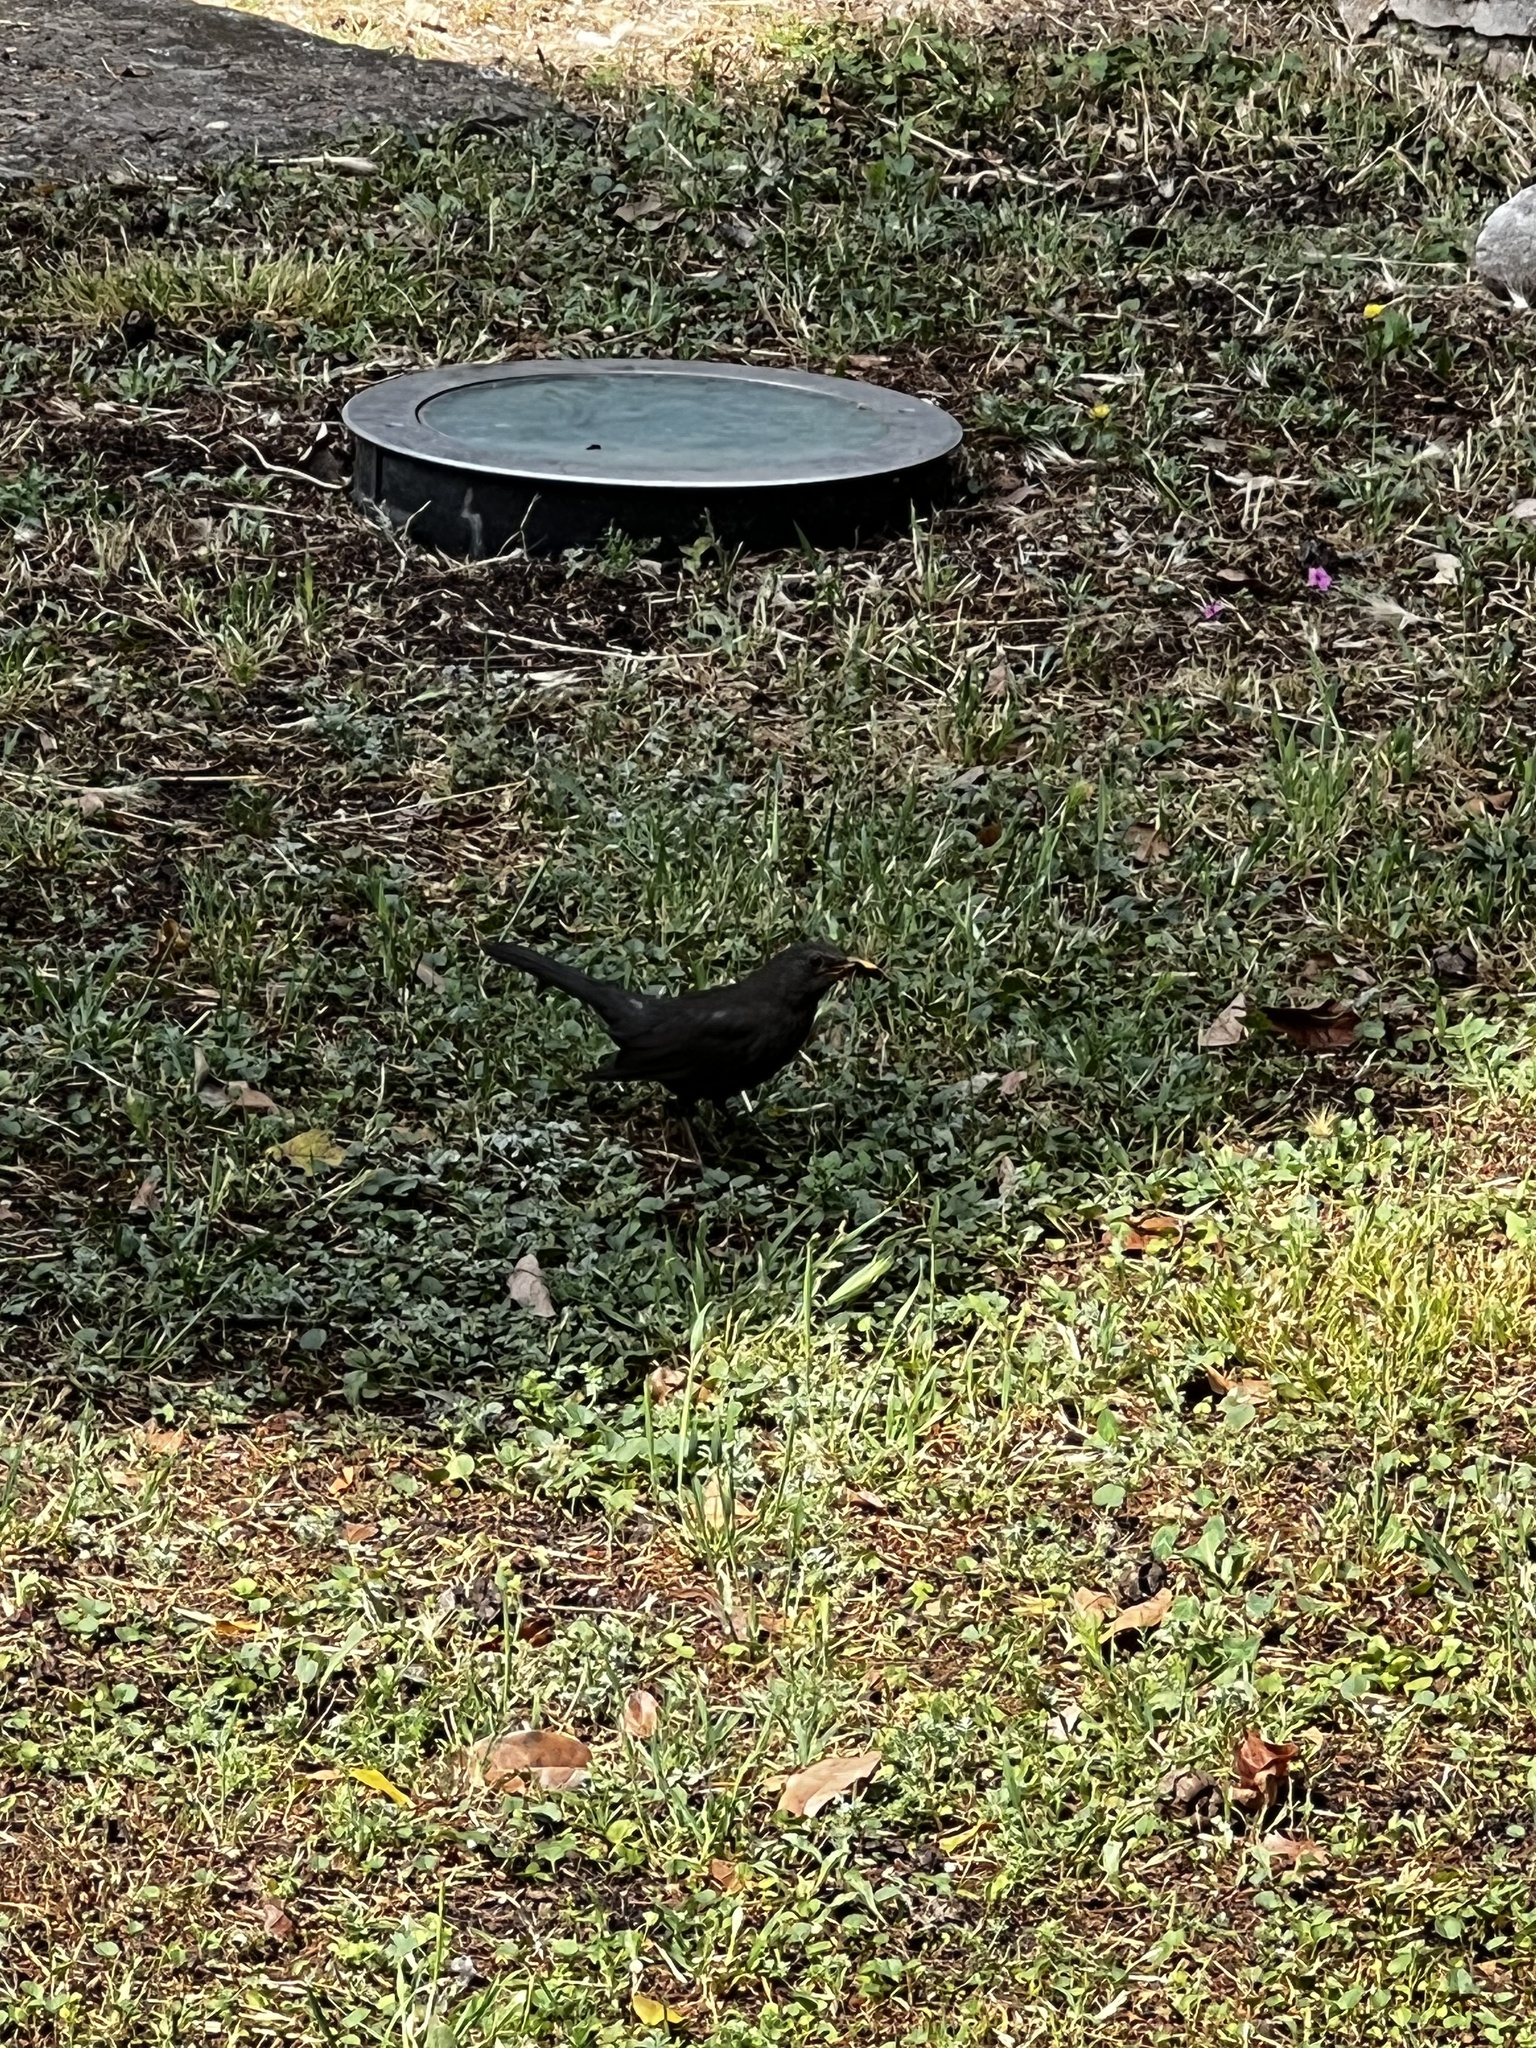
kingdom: Animalia
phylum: Chordata
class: Aves
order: Passeriformes
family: Turdidae
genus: Turdus
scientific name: Turdus merula
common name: Common blackbird
